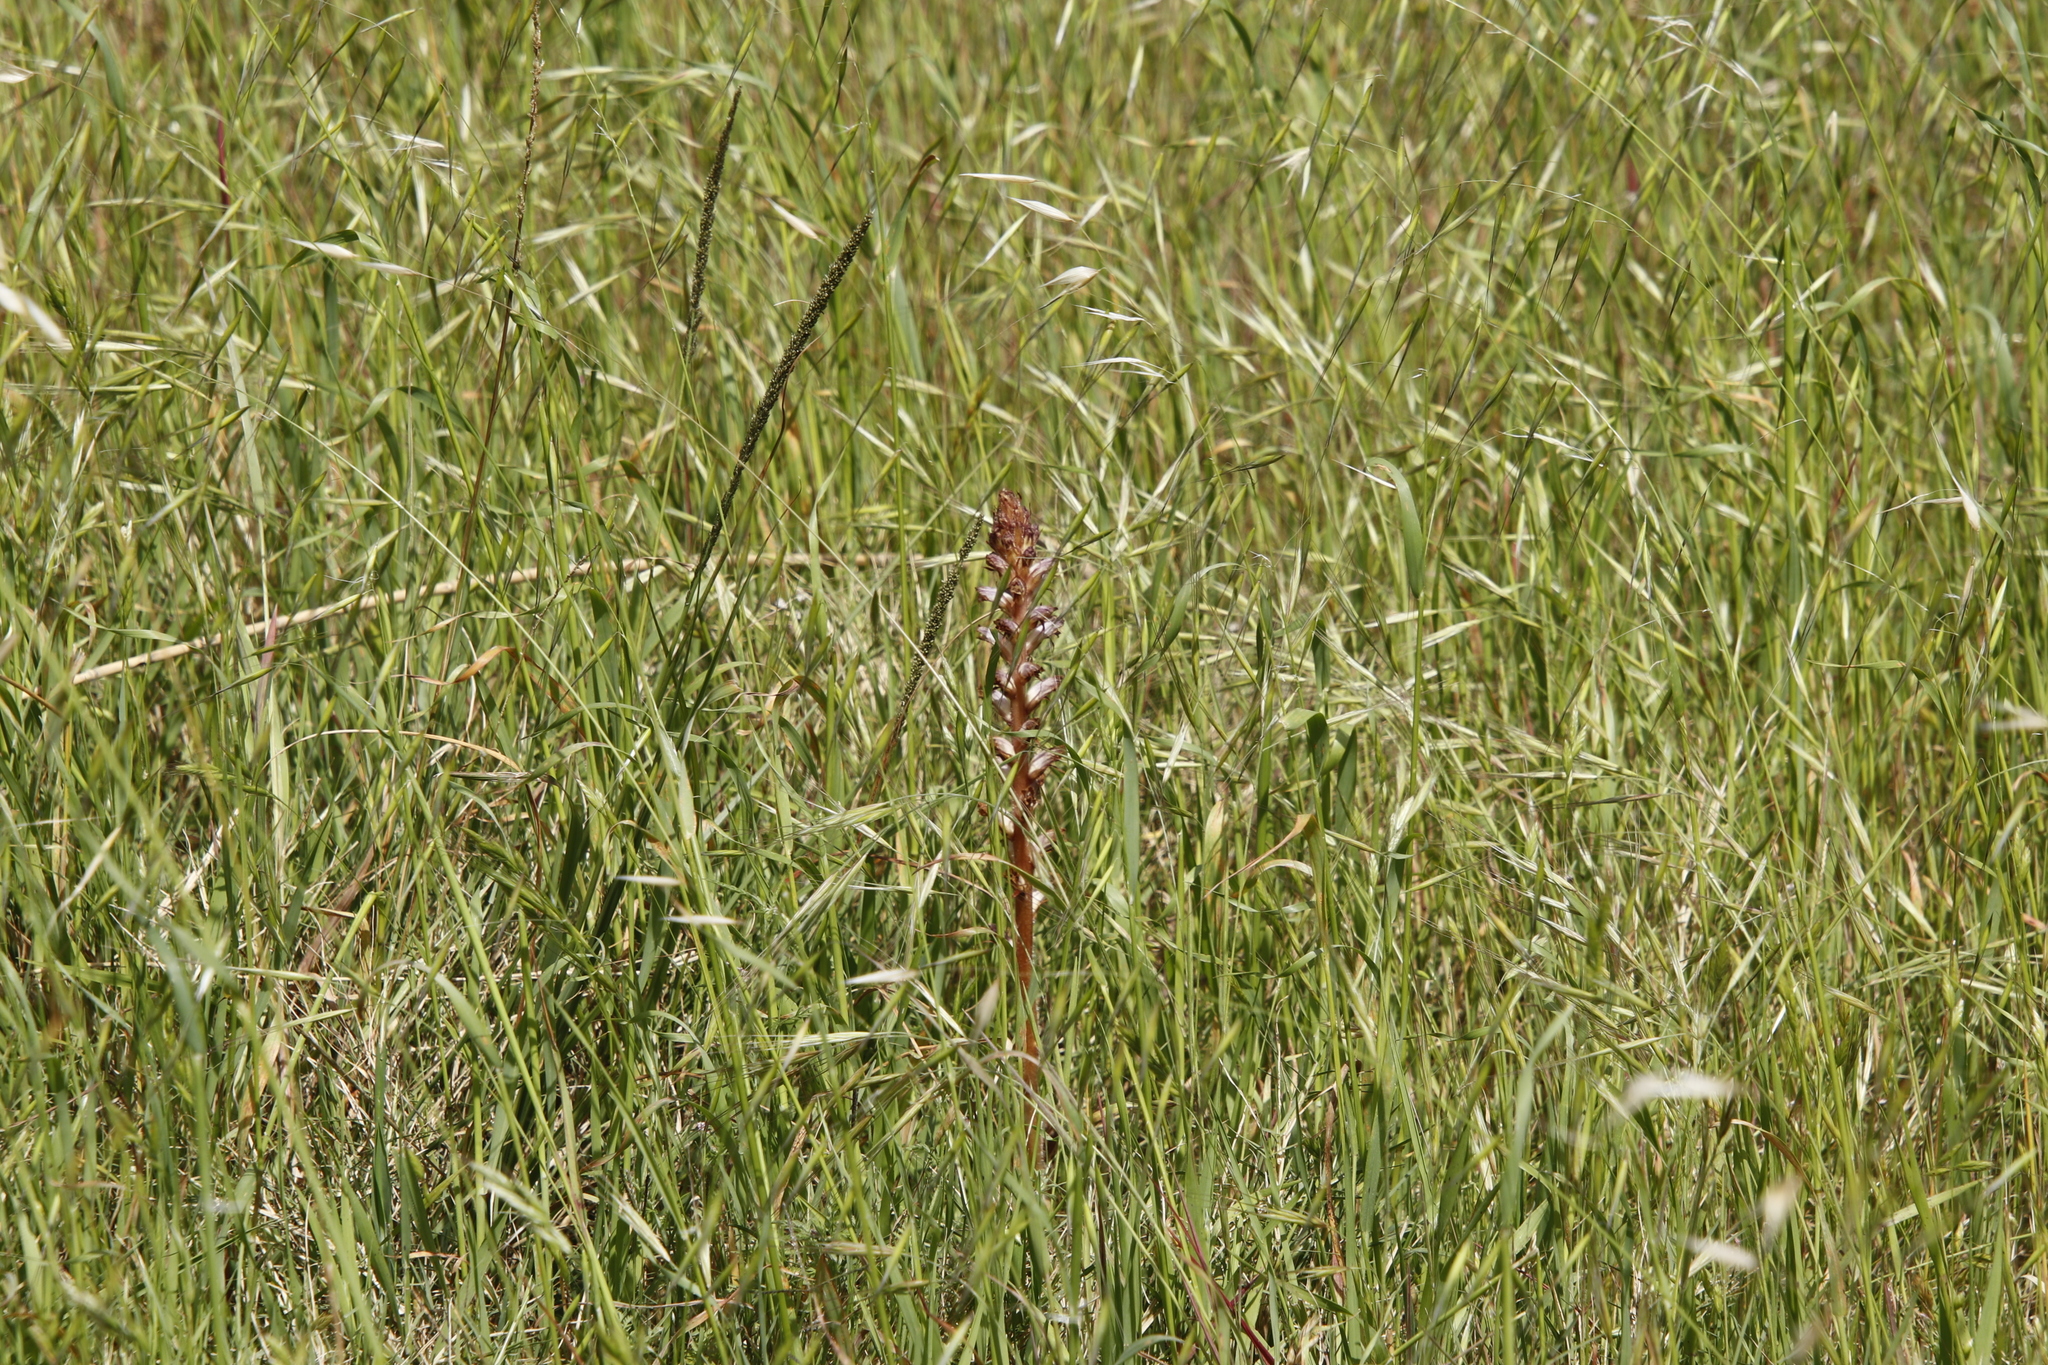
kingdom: Plantae
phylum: Tracheophyta
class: Magnoliopsida
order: Lamiales
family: Orobanchaceae
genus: Orobanche
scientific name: Orobanche minor
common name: Common broomrape
